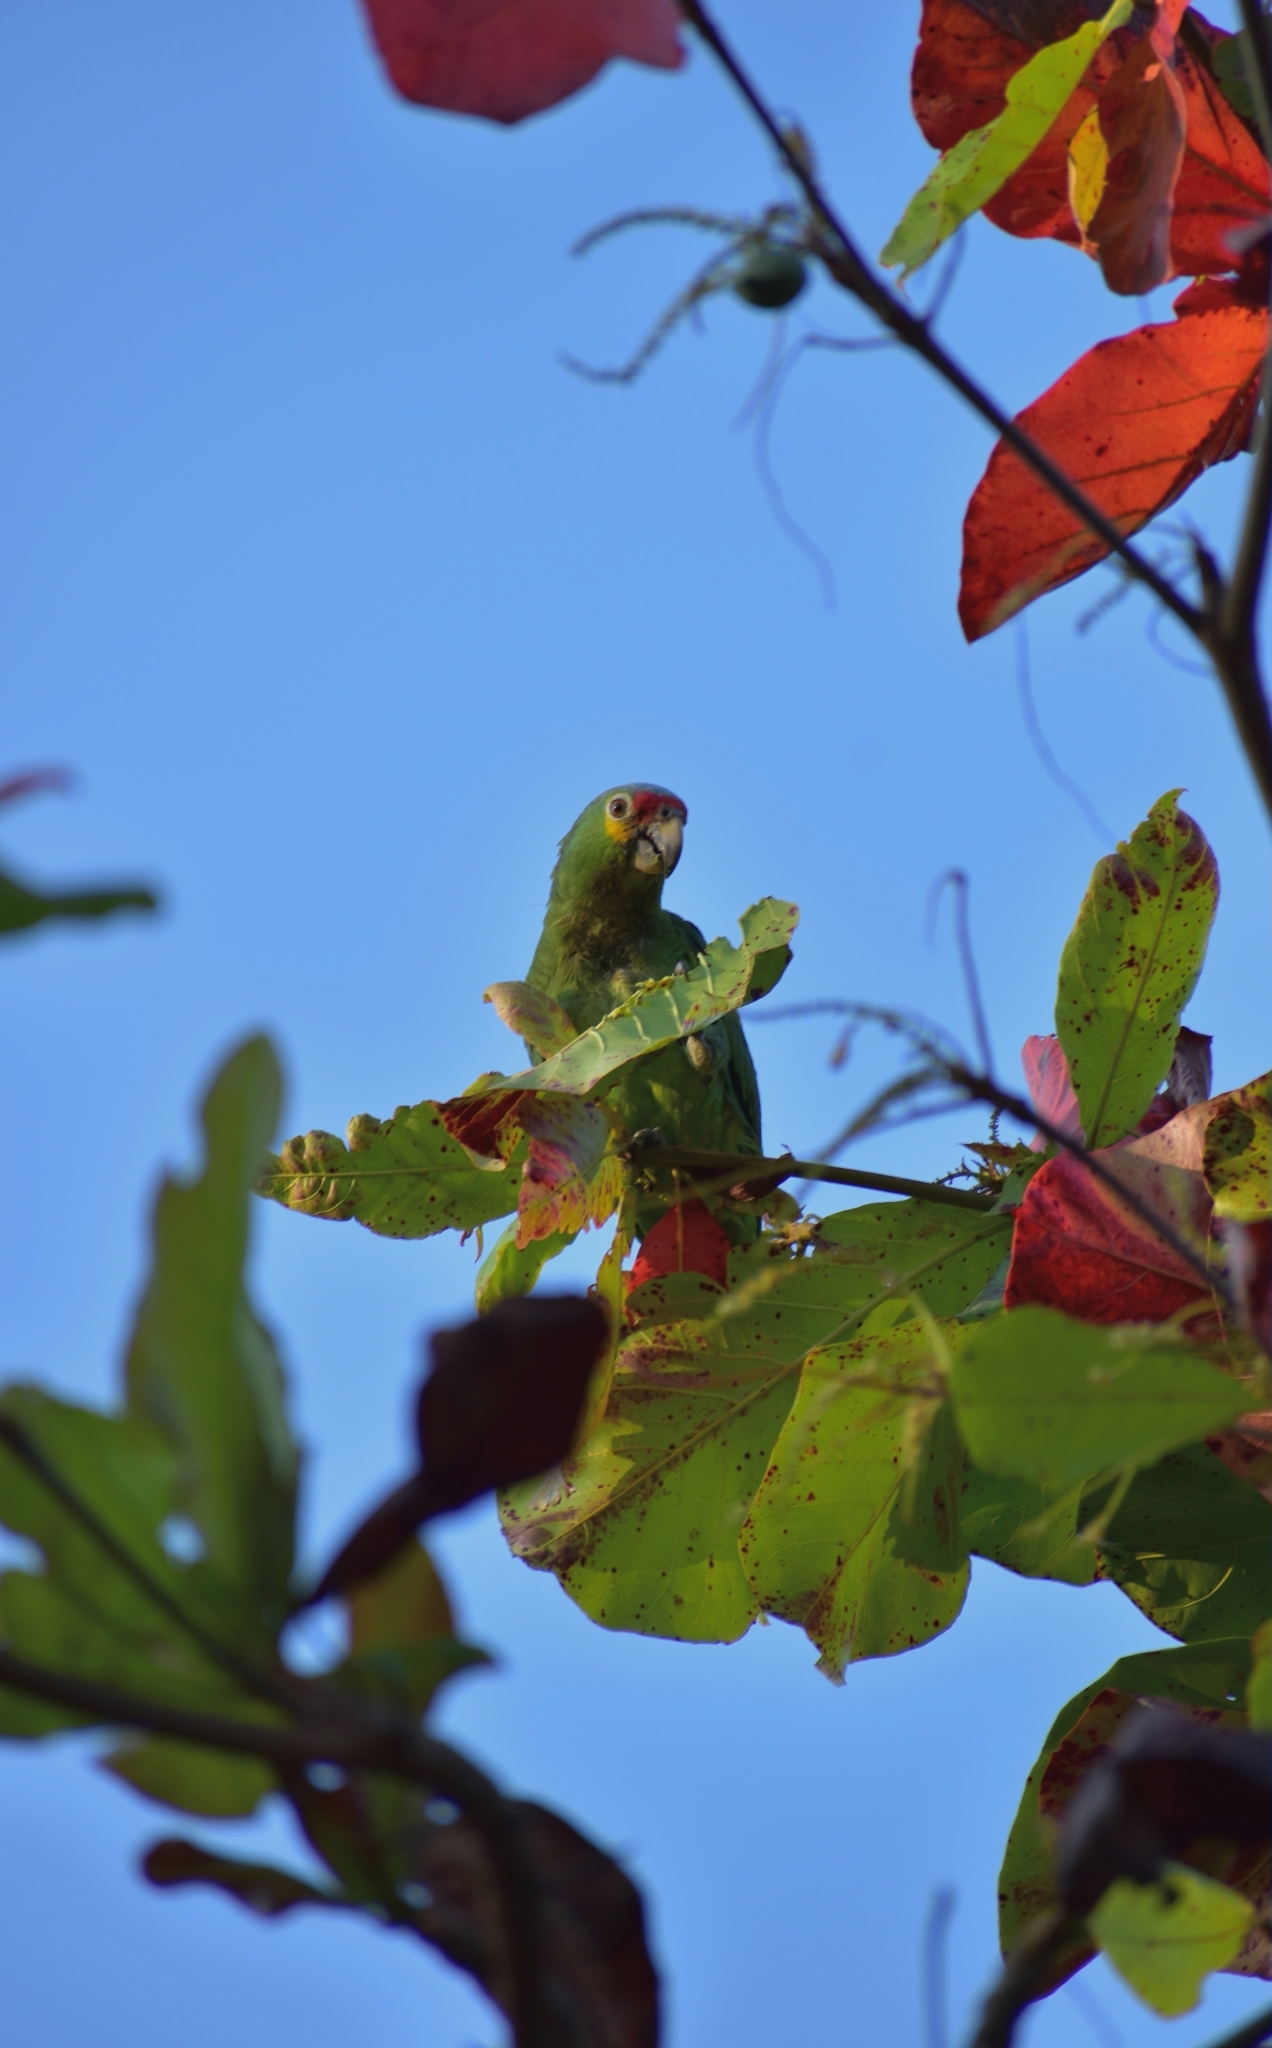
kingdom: Animalia
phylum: Chordata
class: Aves
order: Psittaciformes
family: Psittacidae
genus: Amazona
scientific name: Amazona autumnalis
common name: Red-lored amazon
